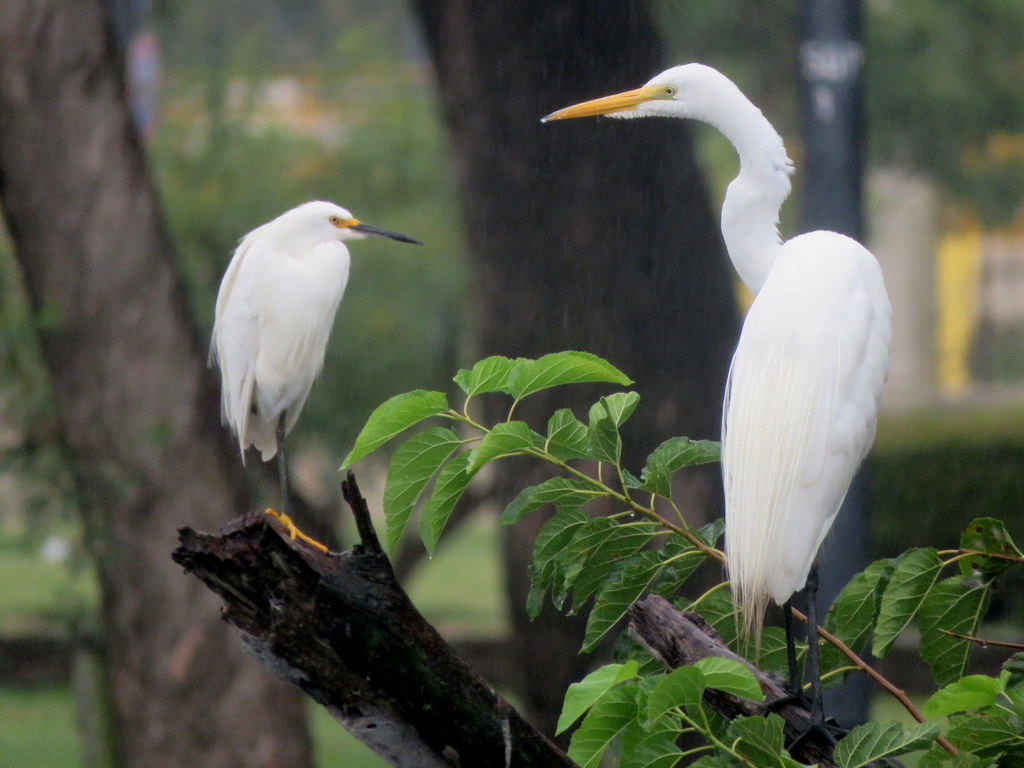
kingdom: Animalia
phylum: Chordata
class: Aves
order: Pelecaniformes
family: Ardeidae
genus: Ardea
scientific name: Ardea alba
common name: Great egret
